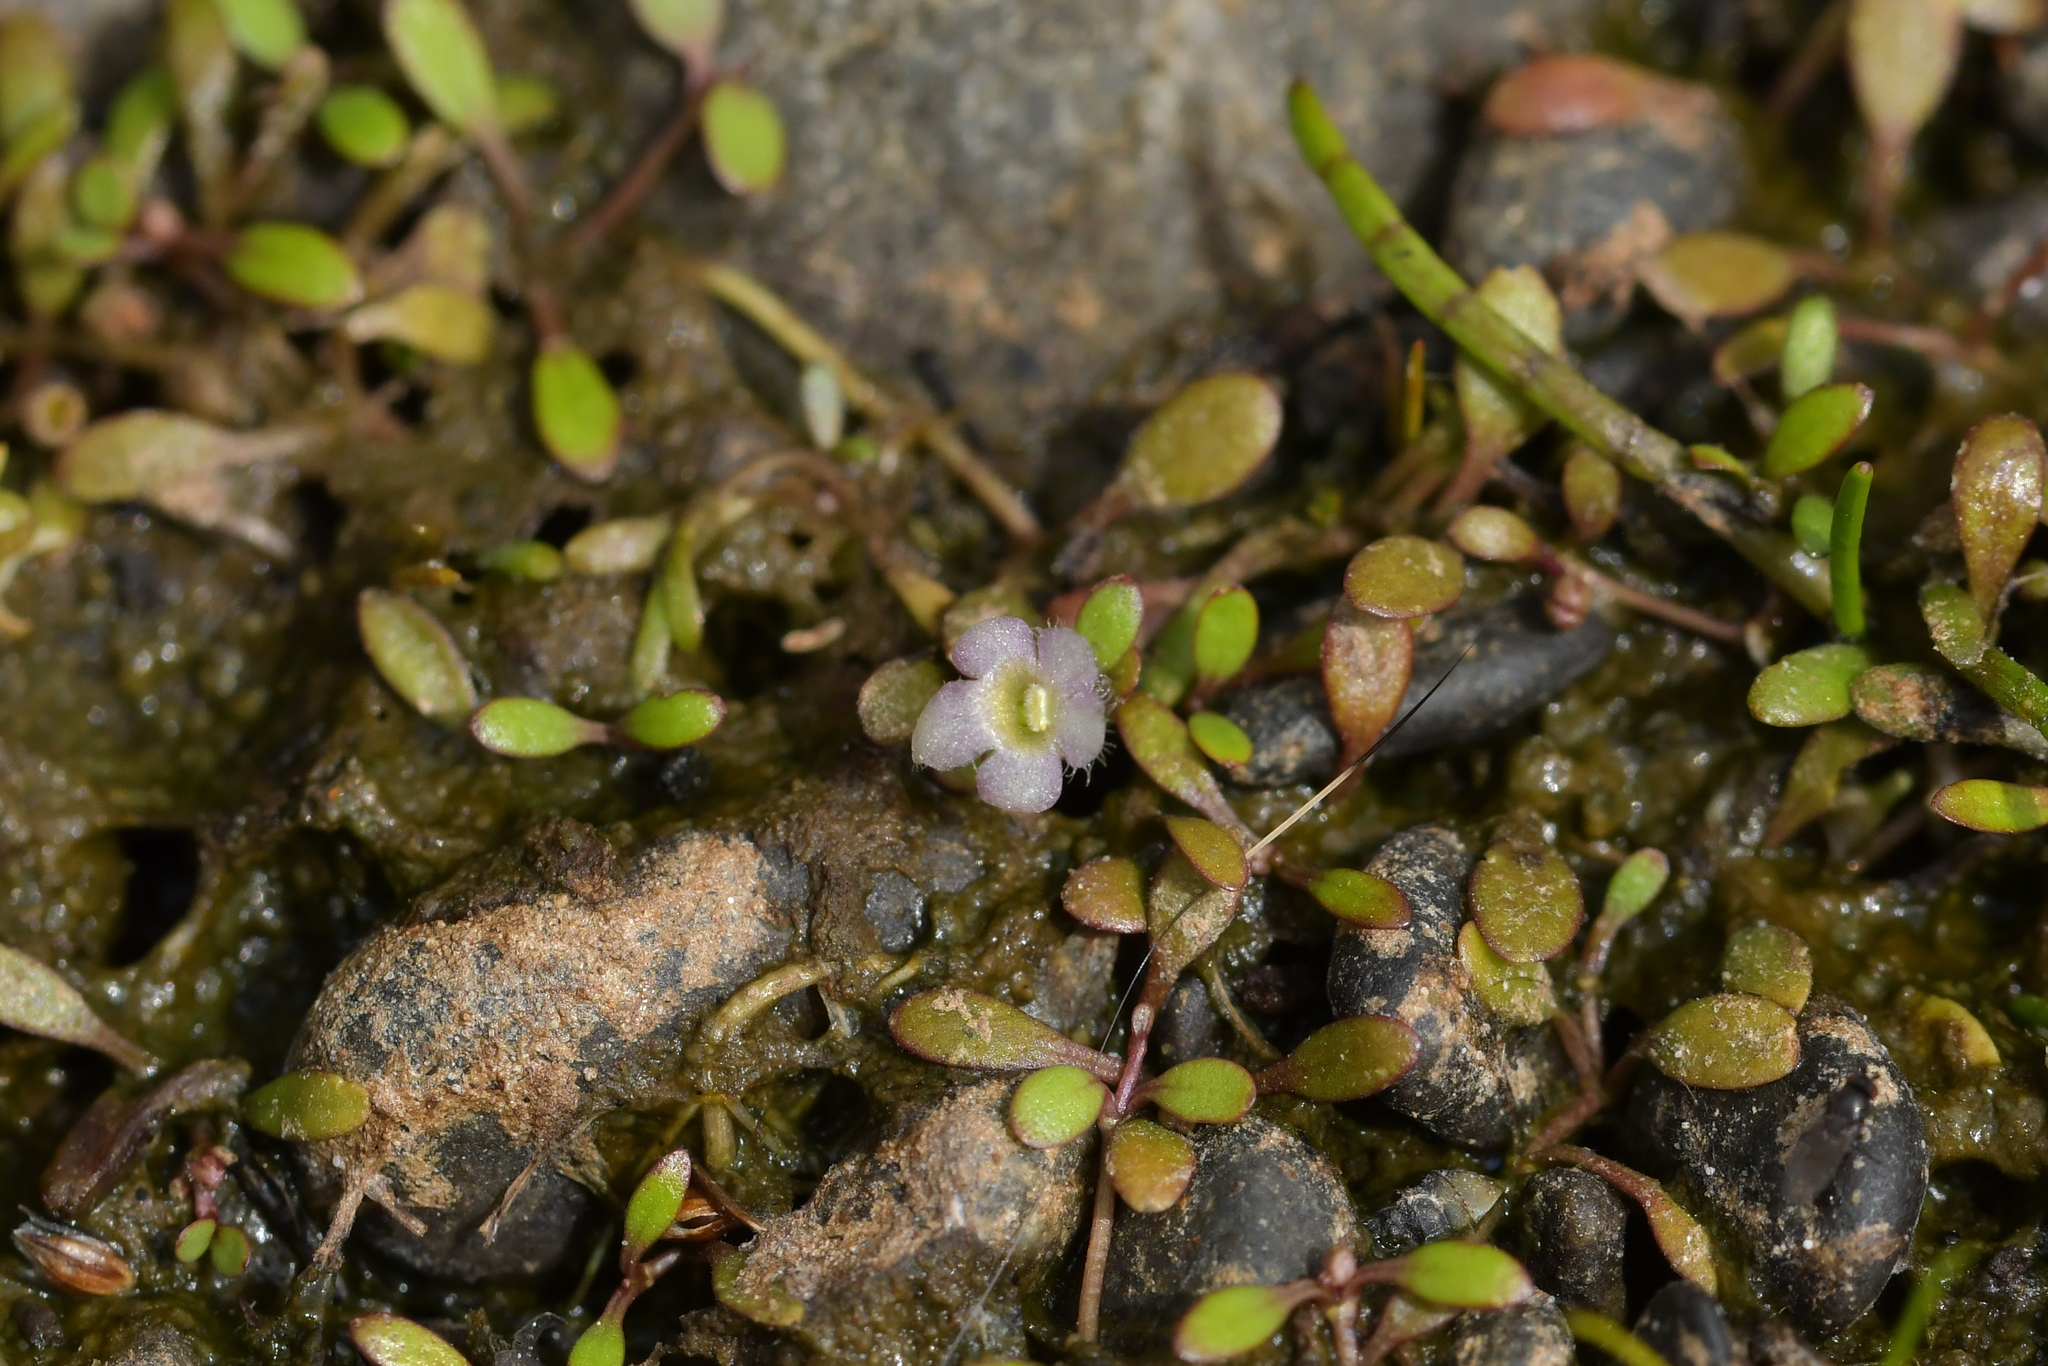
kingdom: Plantae
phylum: Tracheophyta
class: Magnoliopsida
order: Lamiales
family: Phrymaceae
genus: Glossostigma
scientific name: Glossostigma elatinoides
